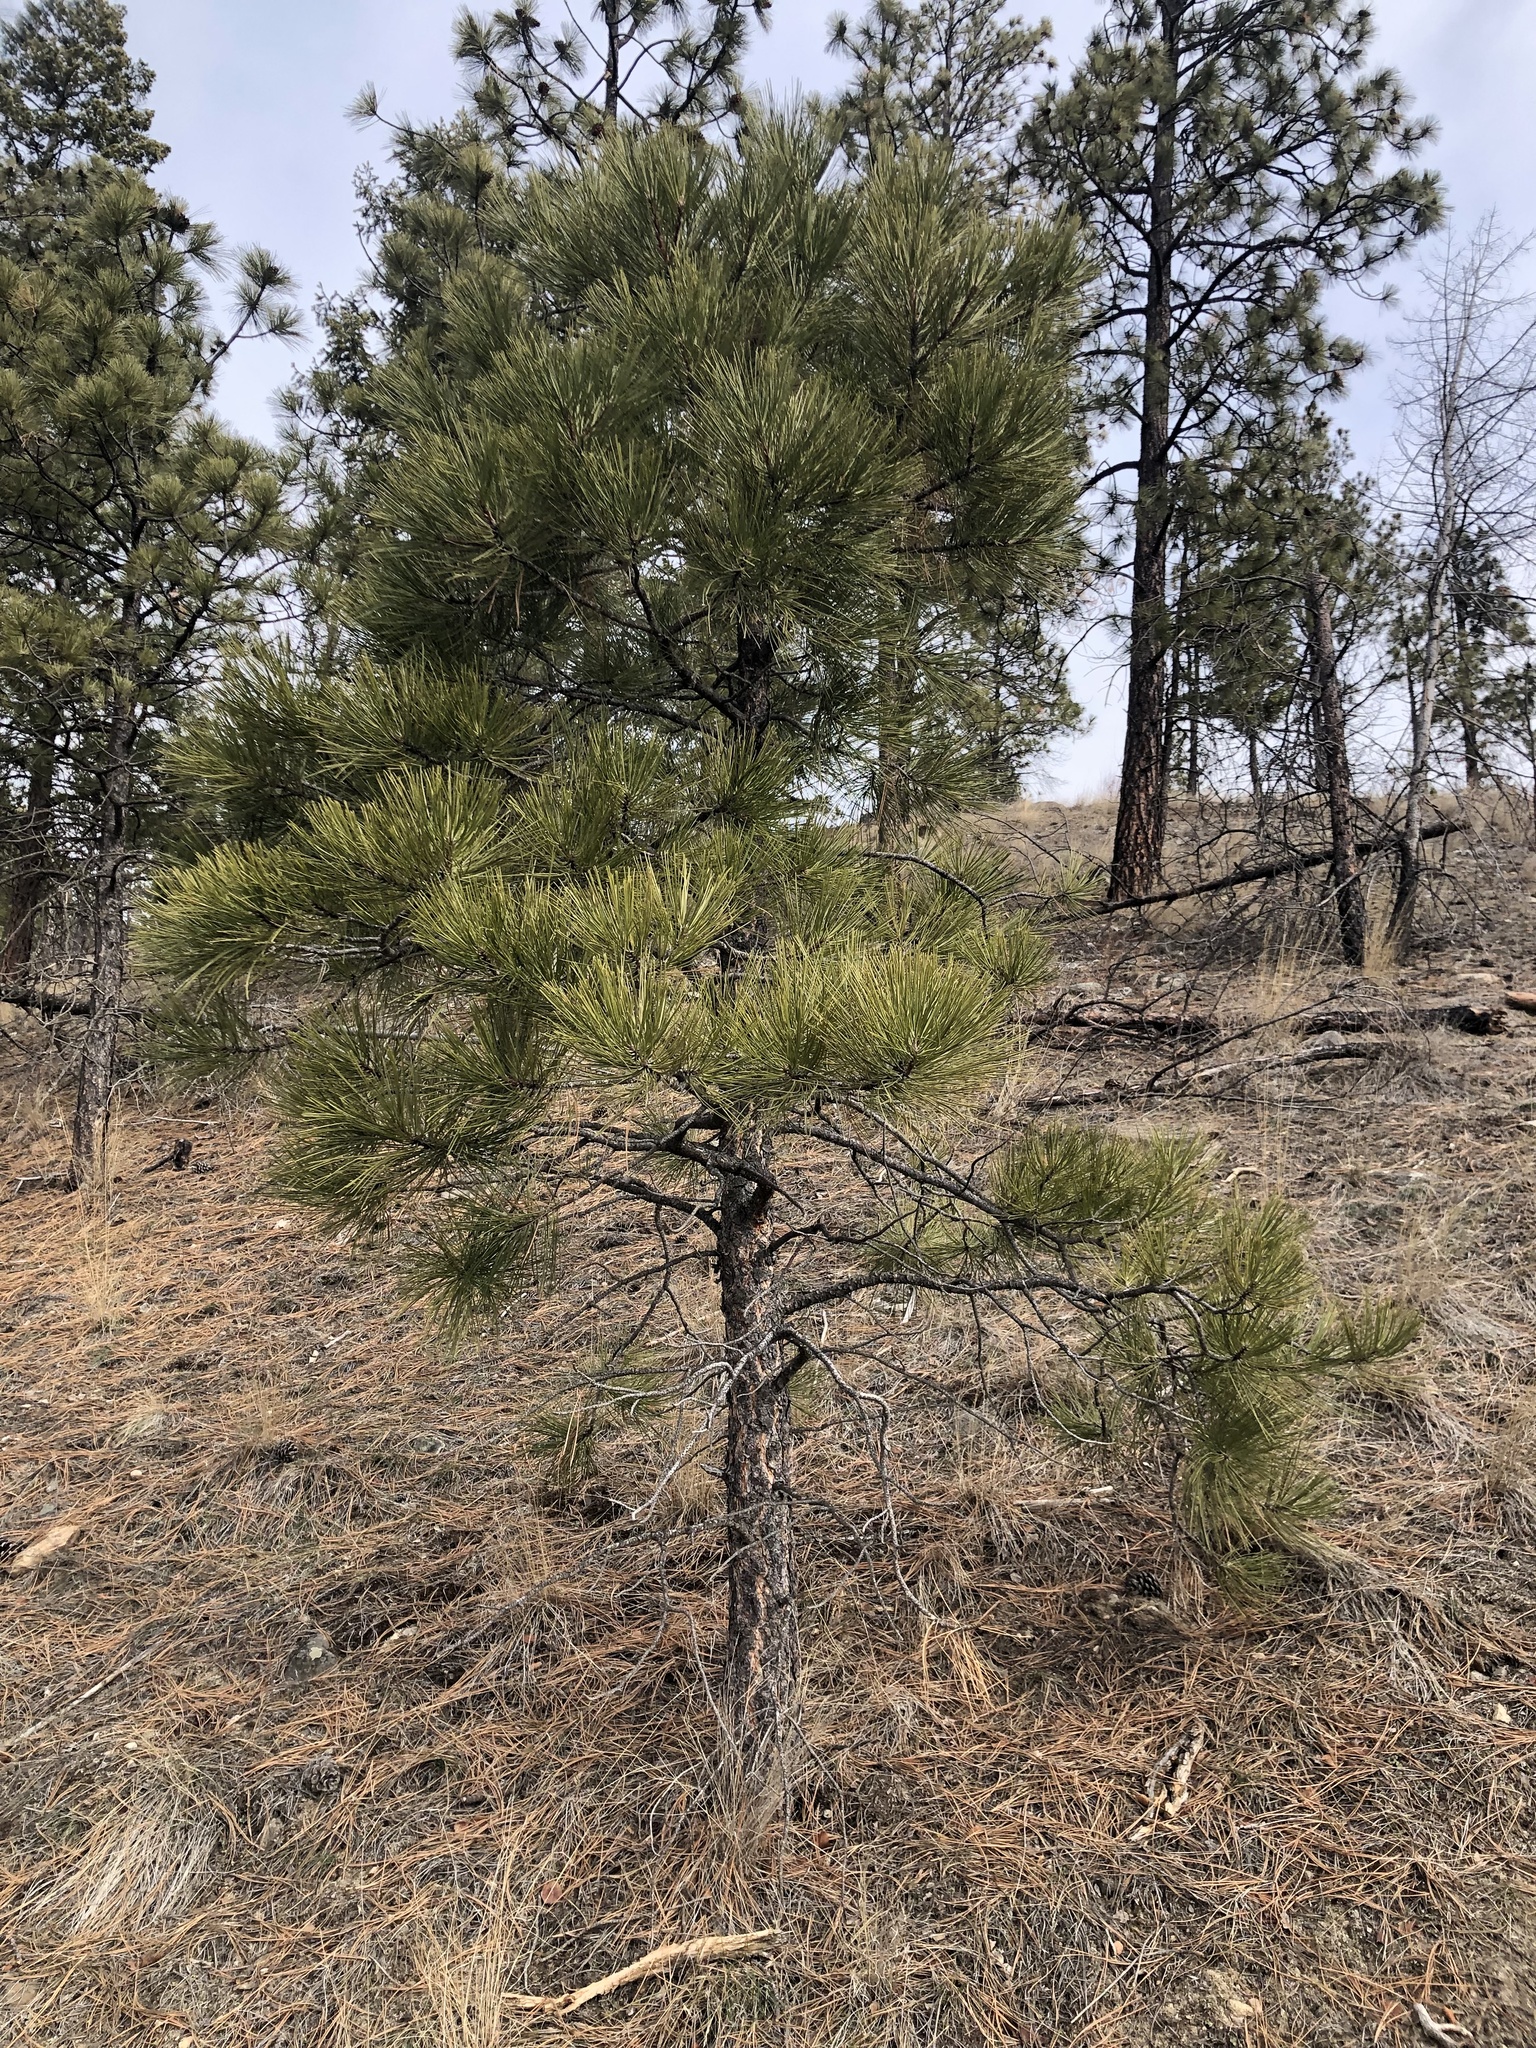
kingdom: Plantae
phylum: Tracheophyta
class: Pinopsida
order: Pinales
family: Pinaceae
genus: Pinus
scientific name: Pinus ponderosa
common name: Western yellow-pine
